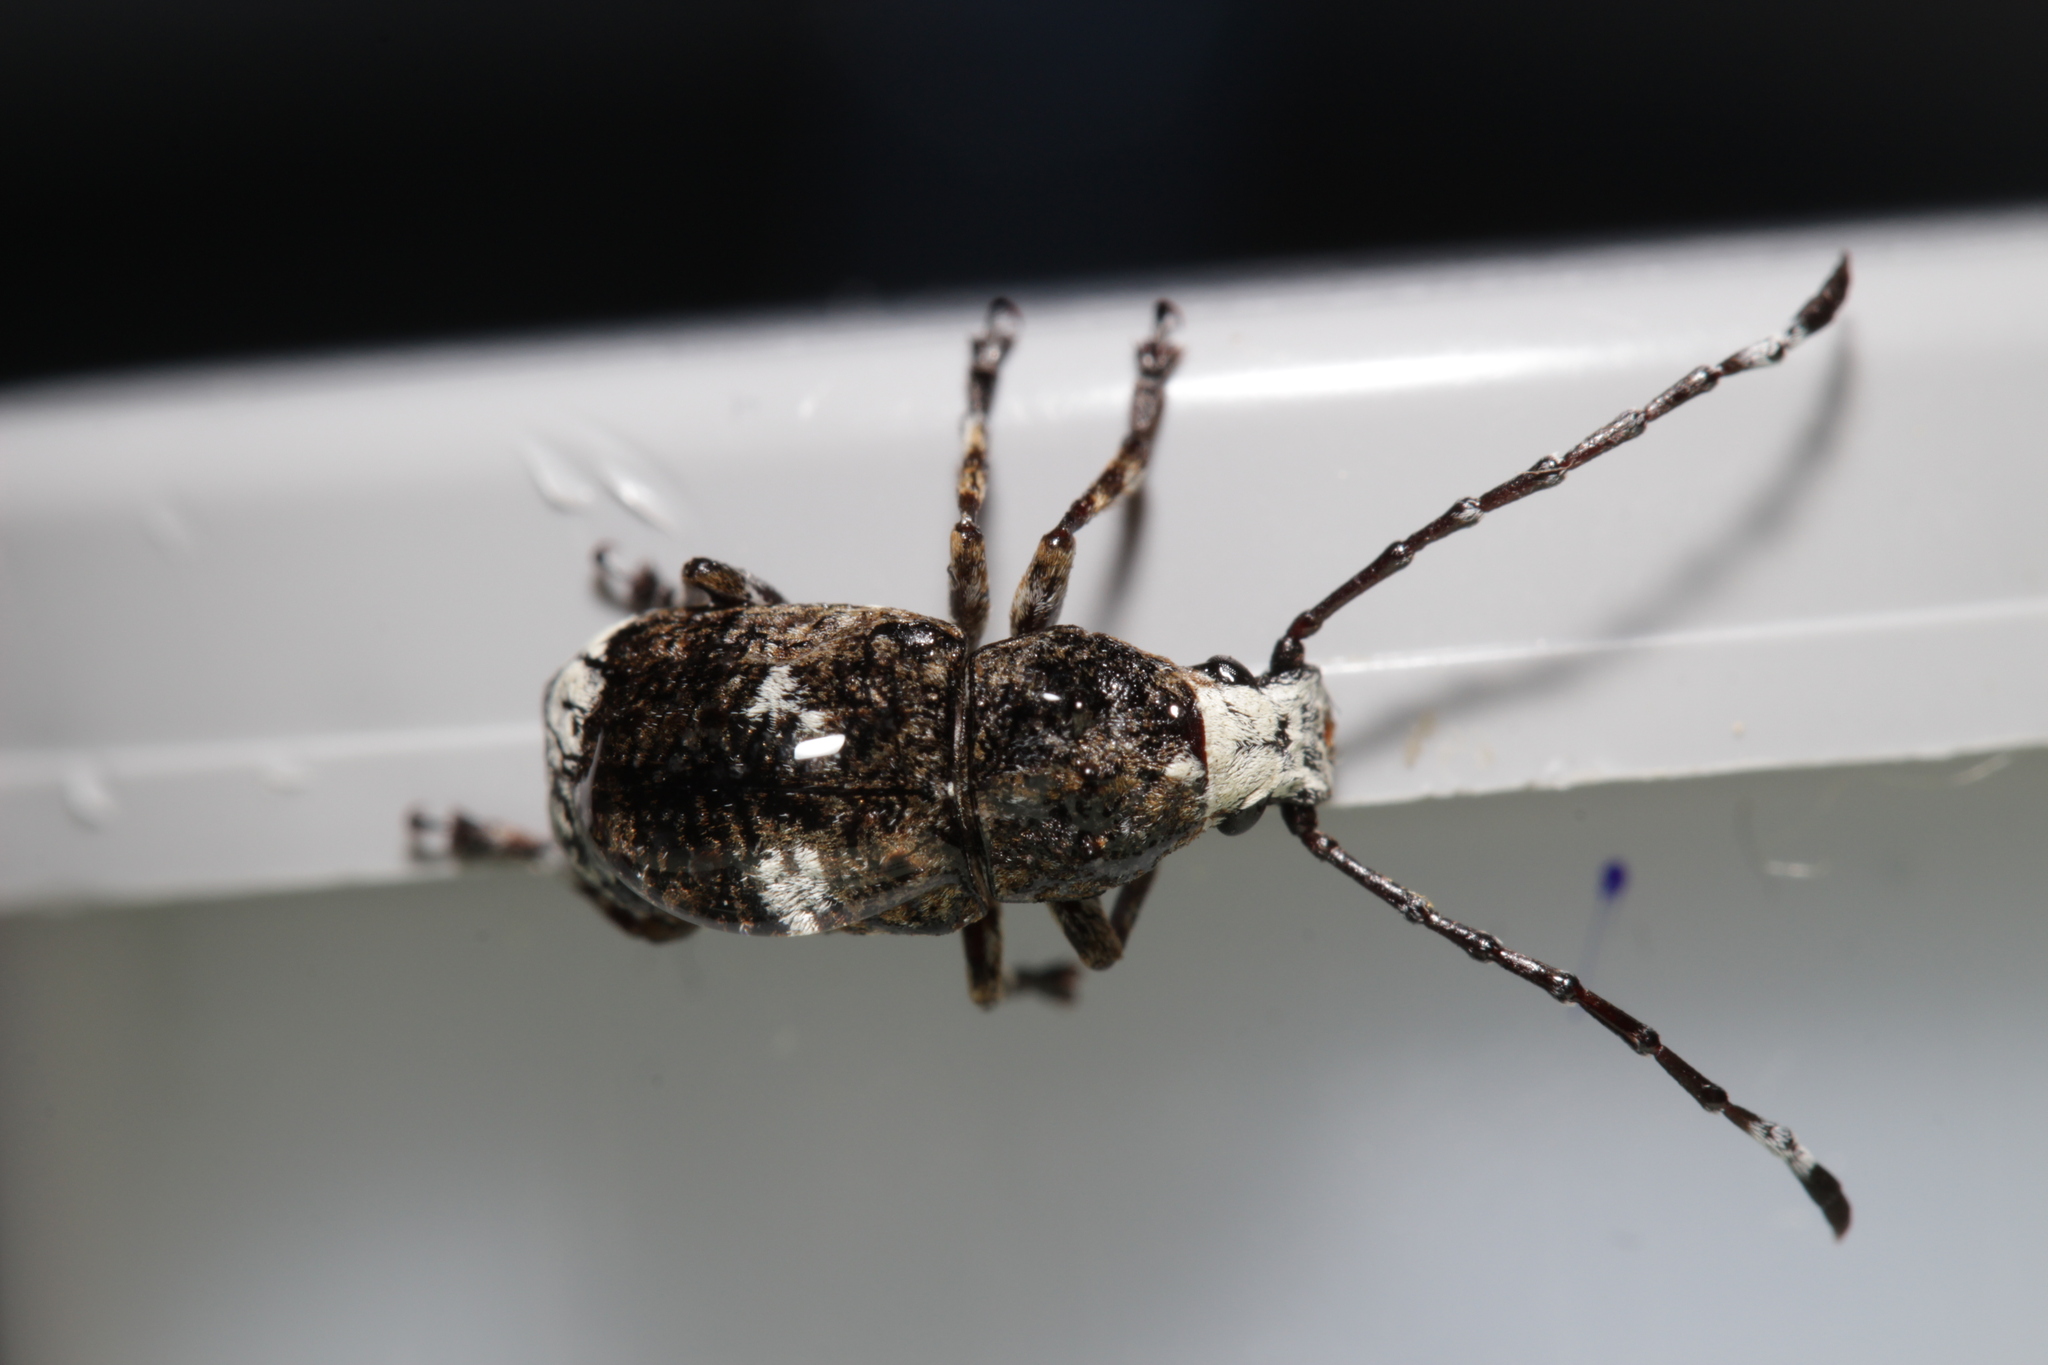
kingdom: Animalia
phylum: Arthropoda
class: Insecta
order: Coleoptera
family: Anthribidae
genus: Platystomos
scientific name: Platystomos albinus
